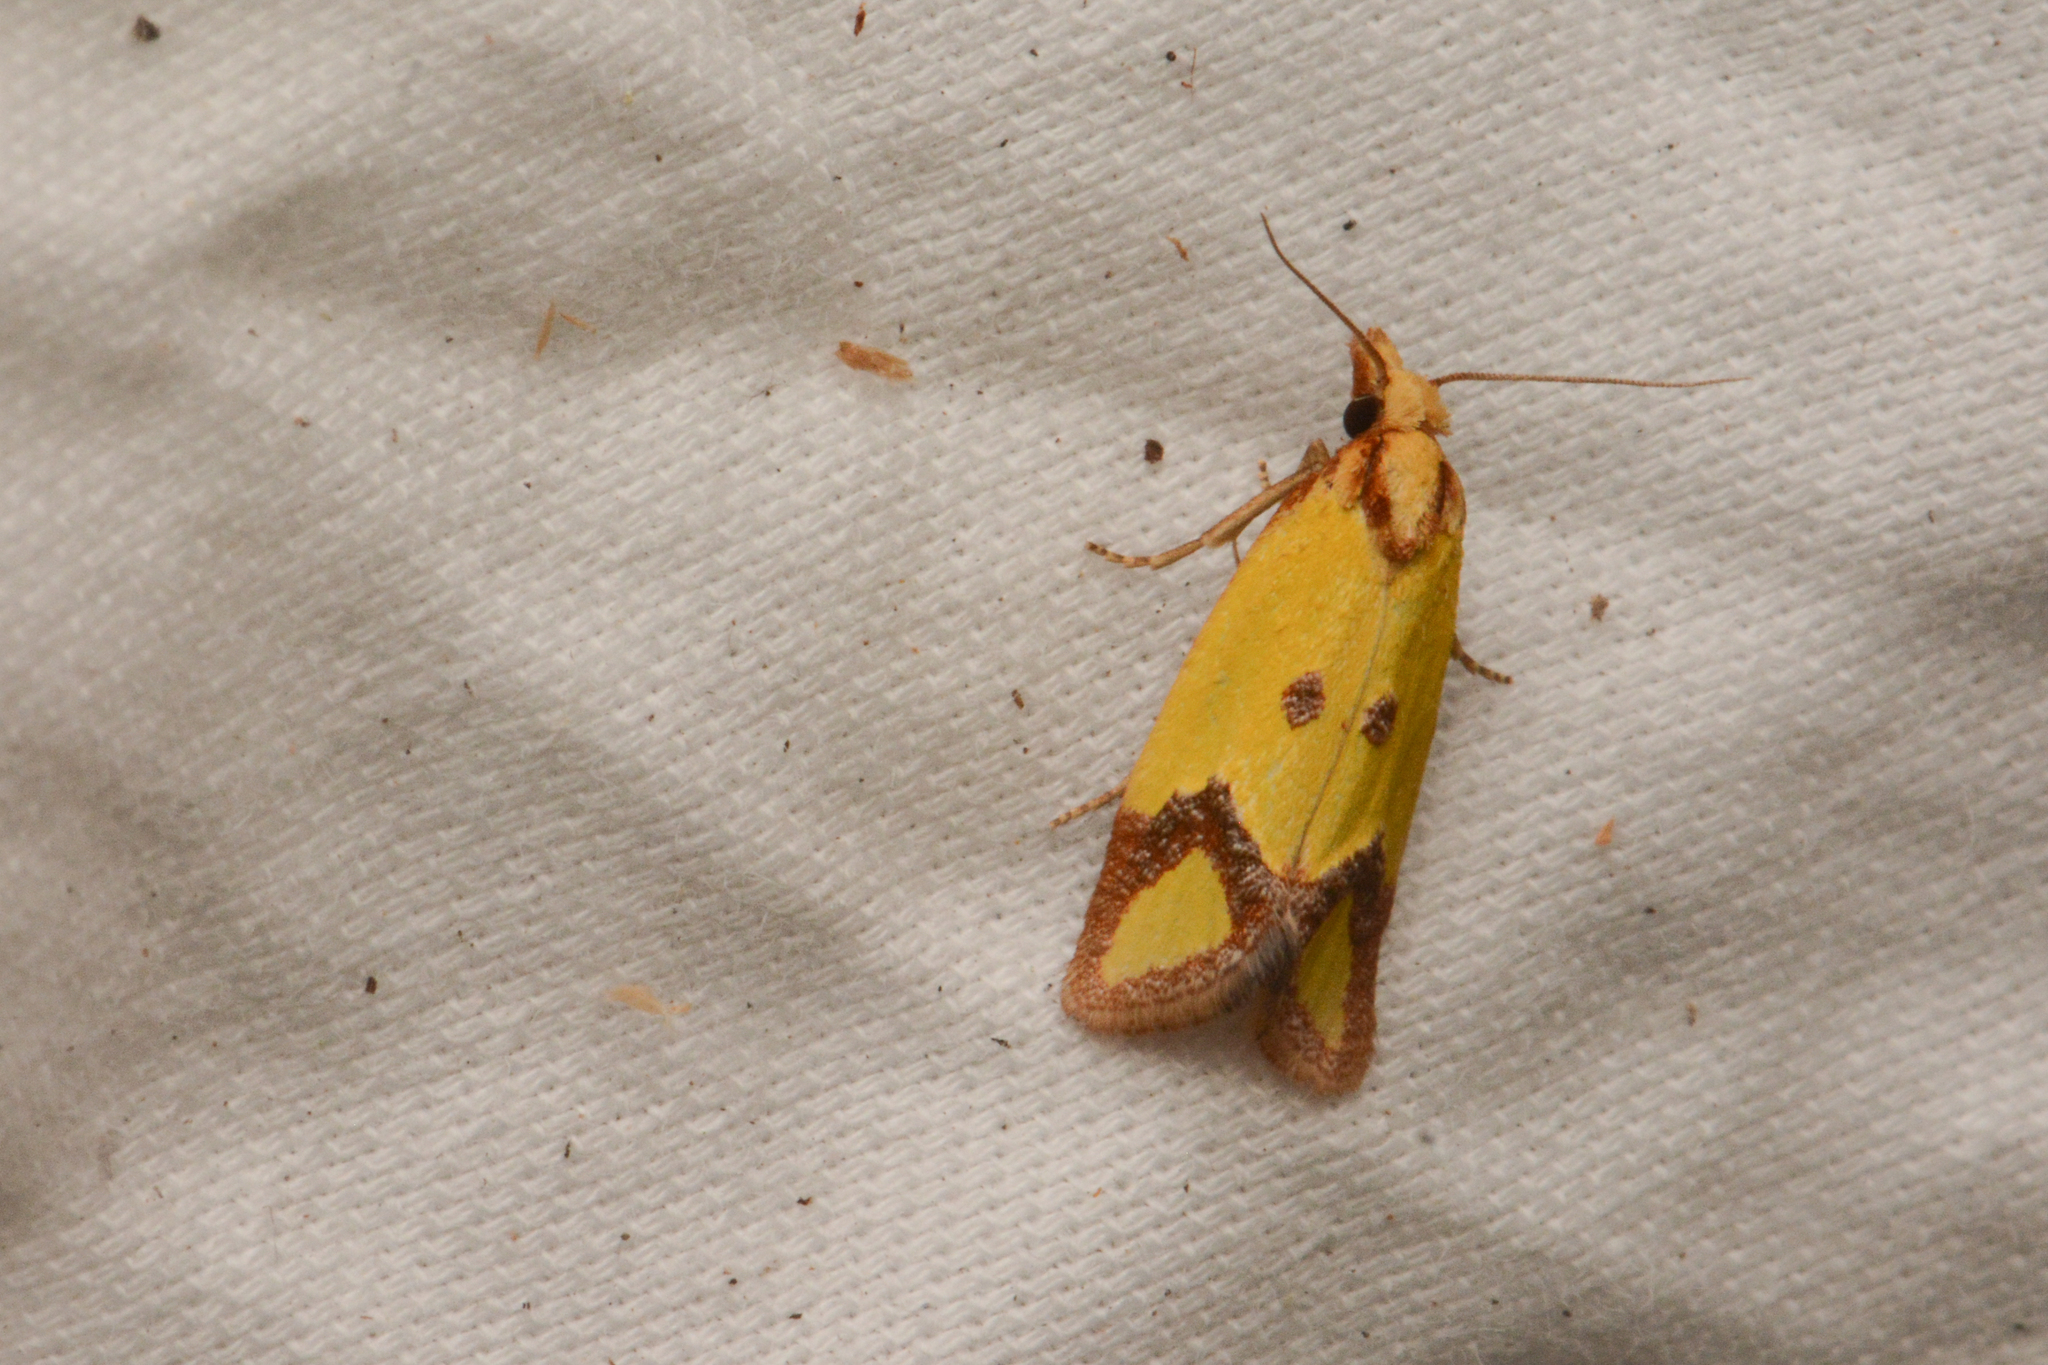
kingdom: Animalia
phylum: Arthropoda
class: Insecta
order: Lepidoptera
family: Tortricidae
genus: Agapeta
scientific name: Agapeta zoegana
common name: Sulfur knapweed root moth
